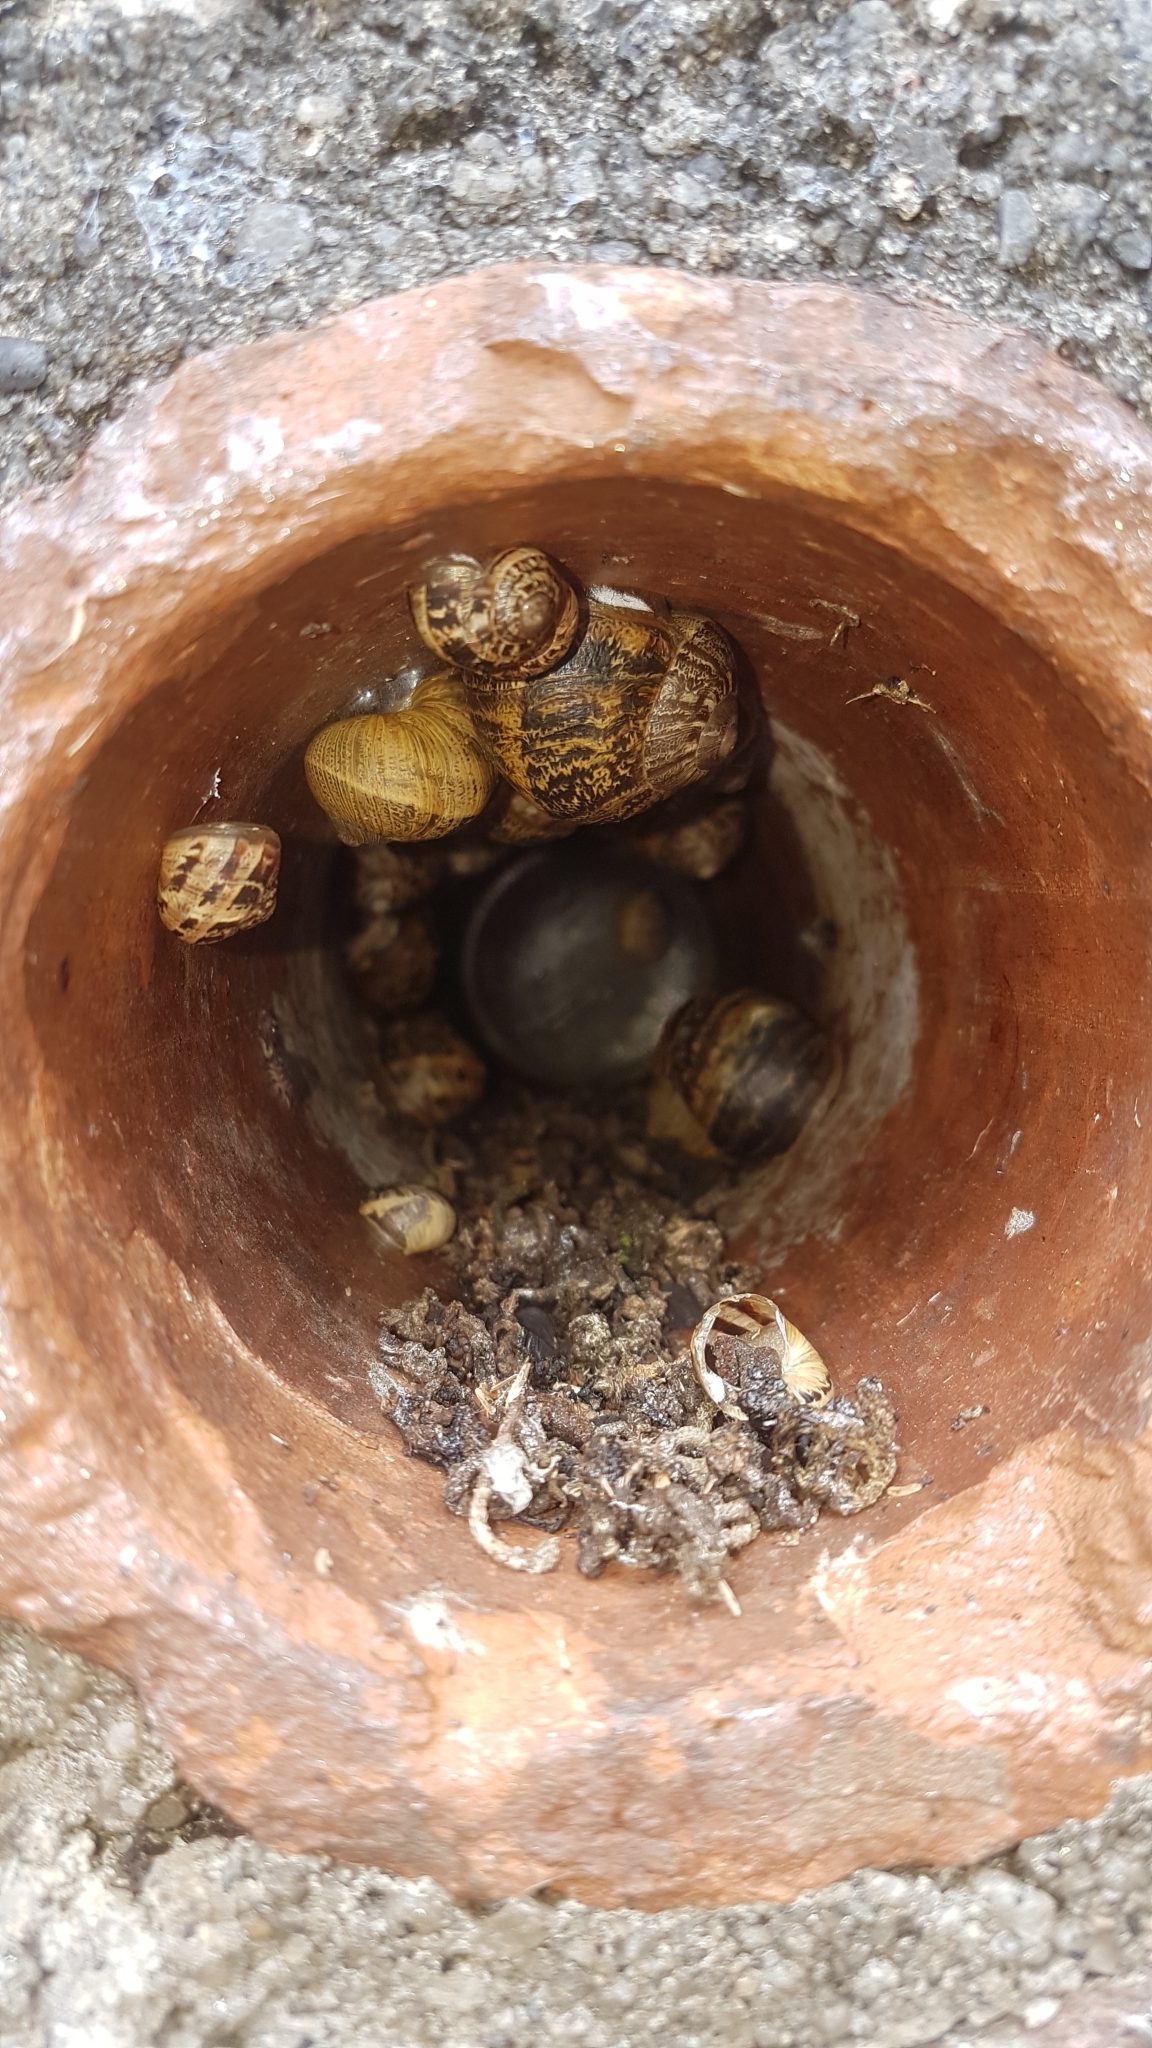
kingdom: Animalia
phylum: Mollusca
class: Gastropoda
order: Stylommatophora
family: Helicidae
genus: Cornu
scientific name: Cornu aspersum
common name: Brown garden snail
